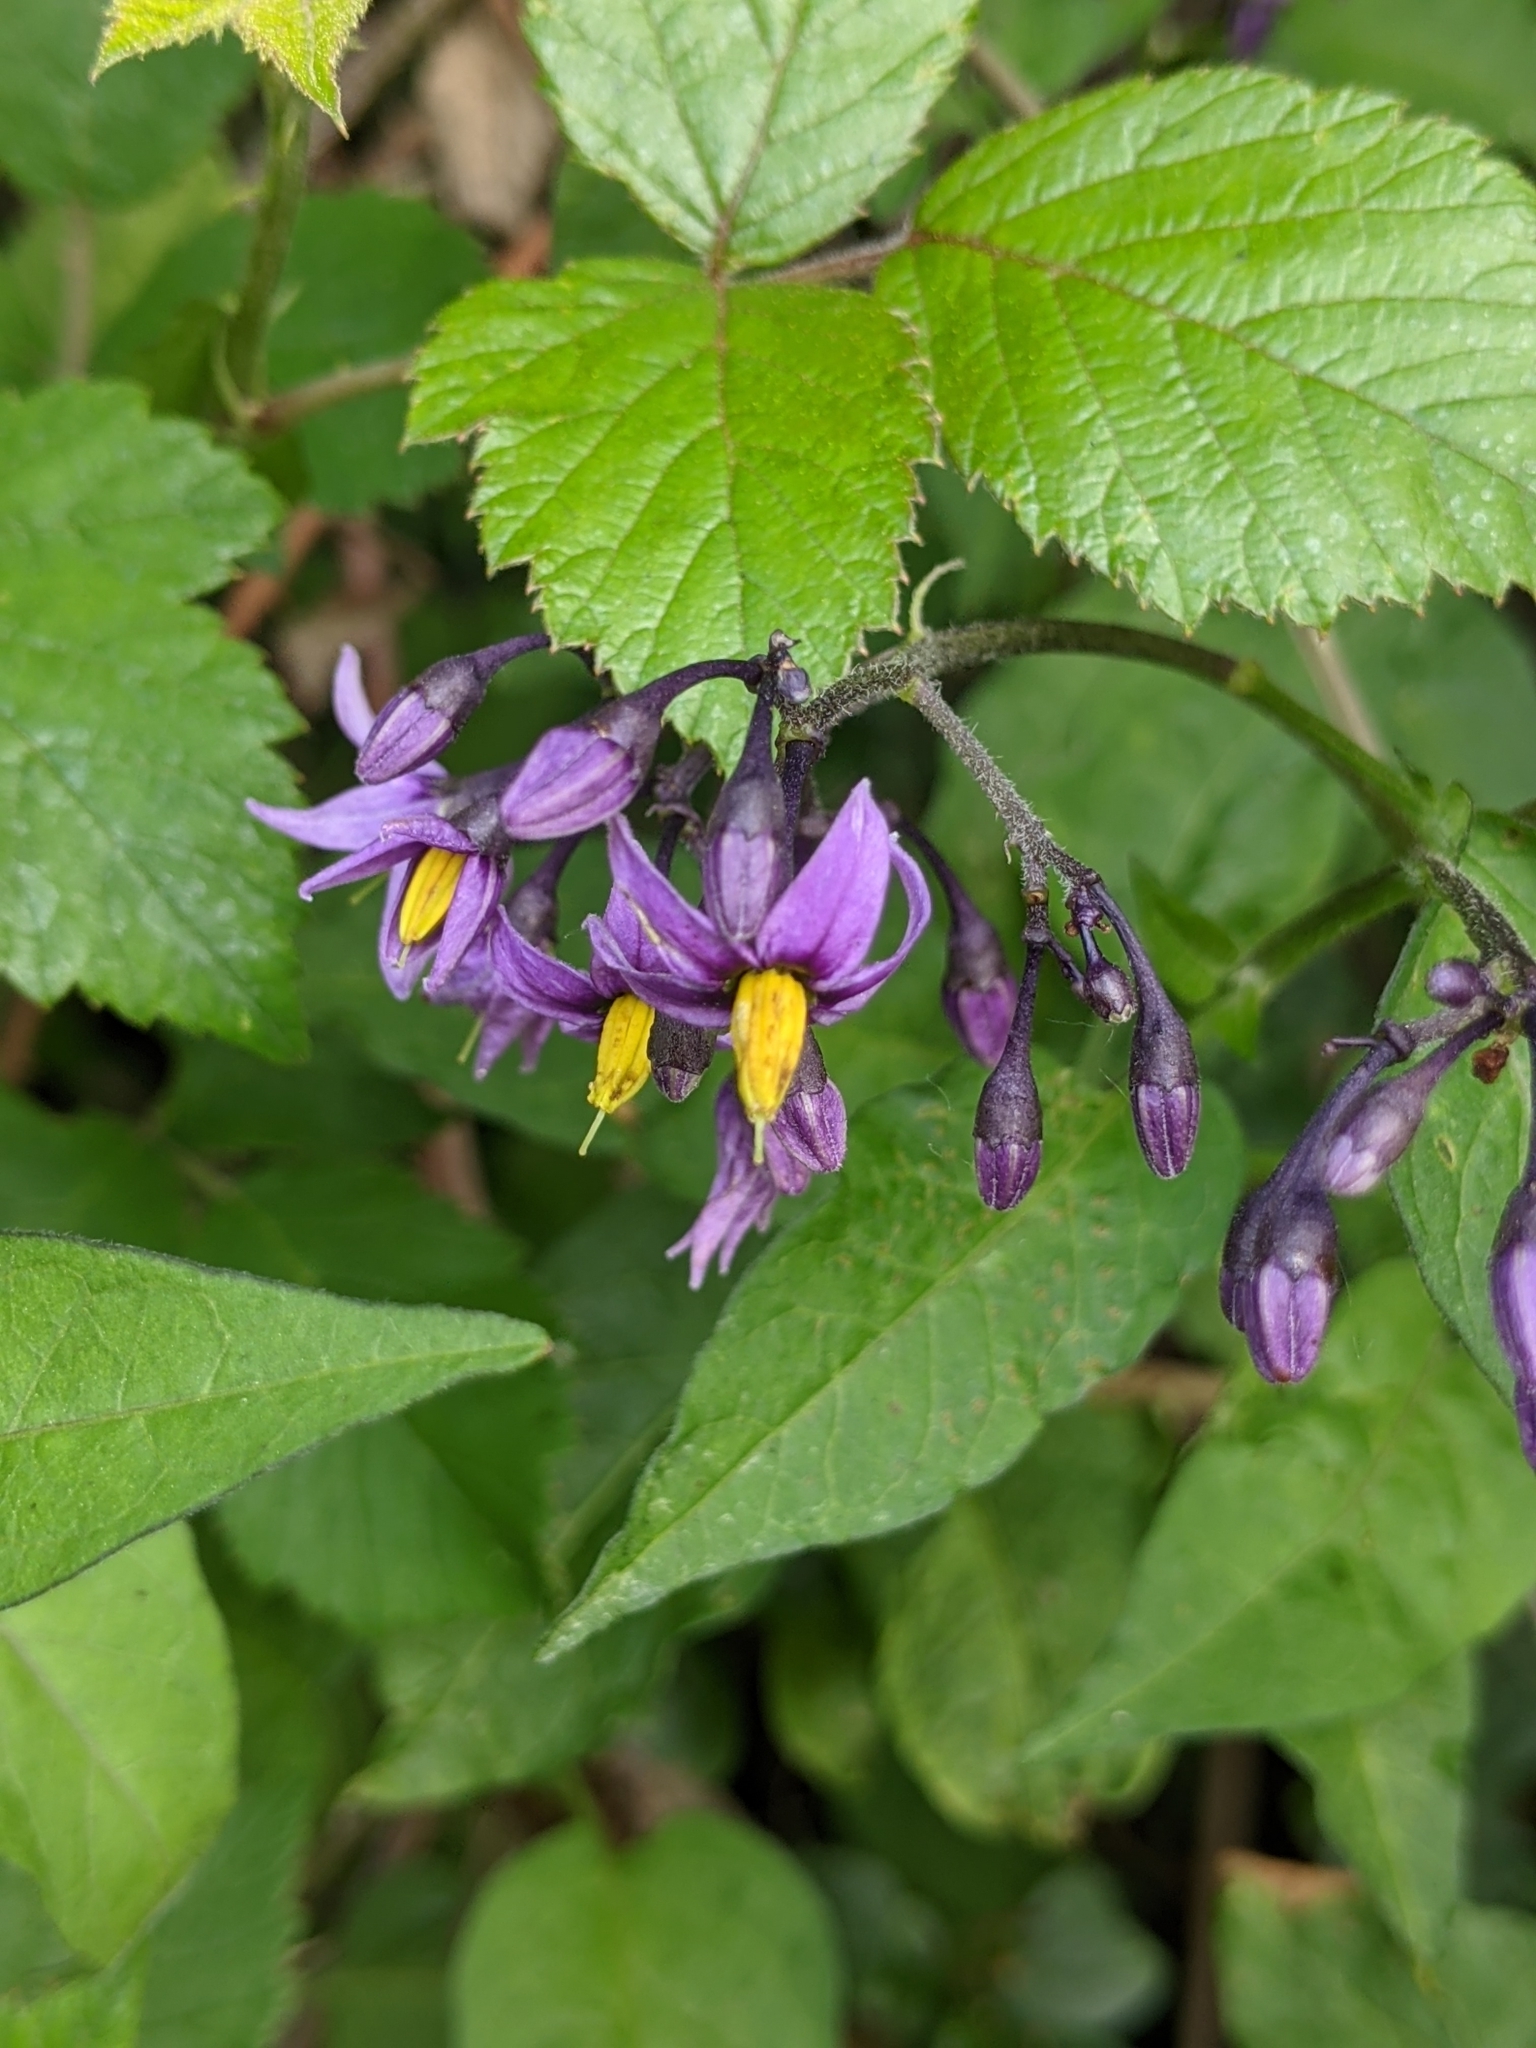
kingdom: Plantae
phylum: Tracheophyta
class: Magnoliopsida
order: Solanales
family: Solanaceae
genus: Solanum
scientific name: Solanum dulcamara
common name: Climbing nightshade
